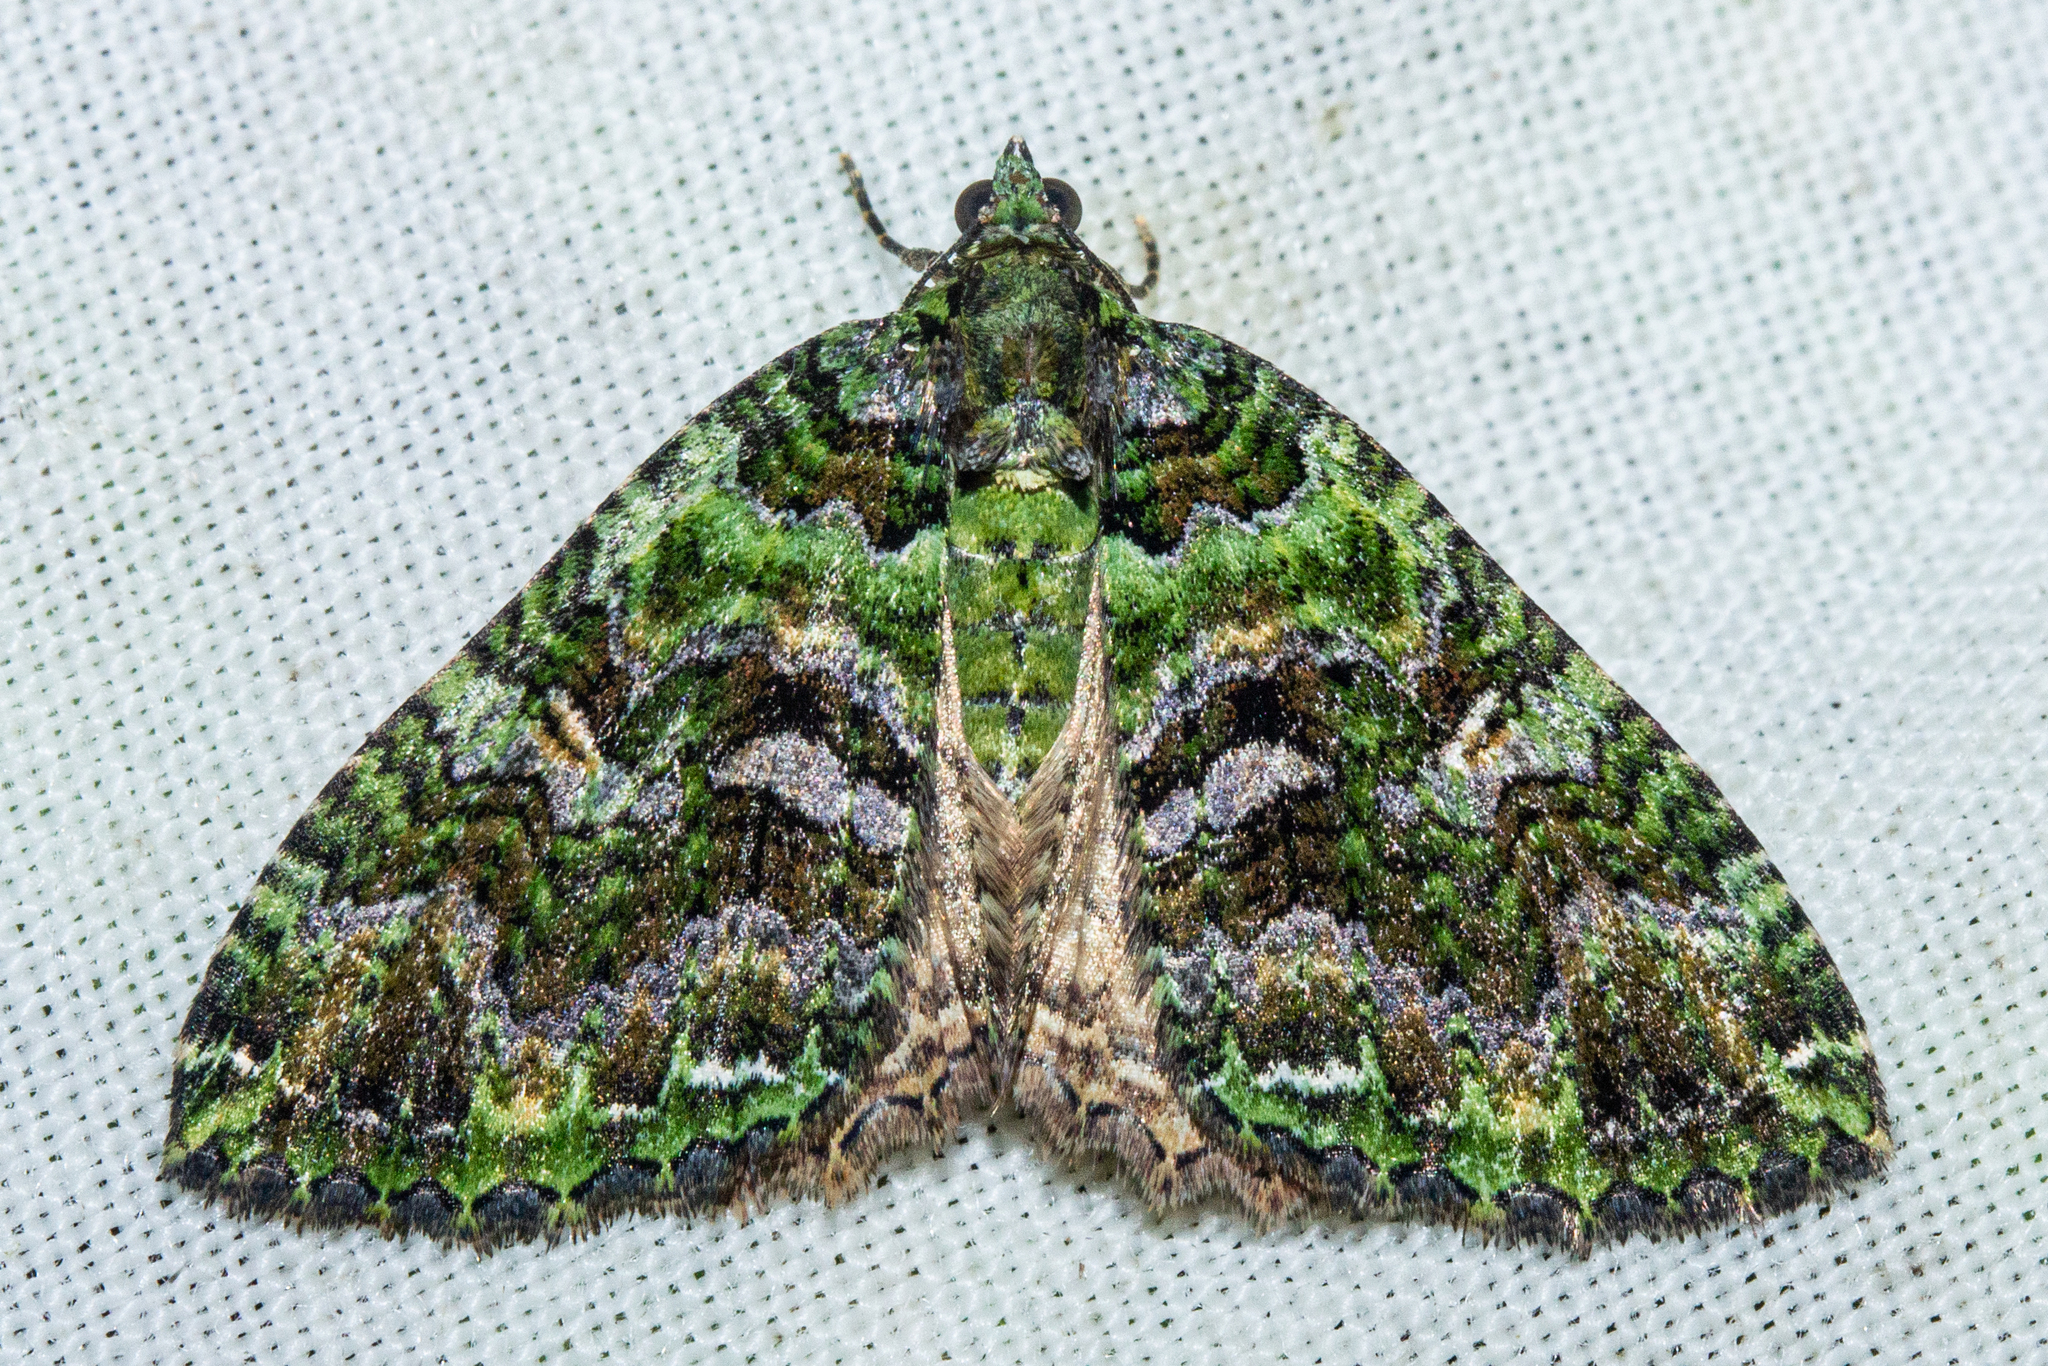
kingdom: Animalia
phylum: Arthropoda
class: Insecta
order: Lepidoptera
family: Geometridae
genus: Austrocidaria
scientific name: Austrocidaria similata
